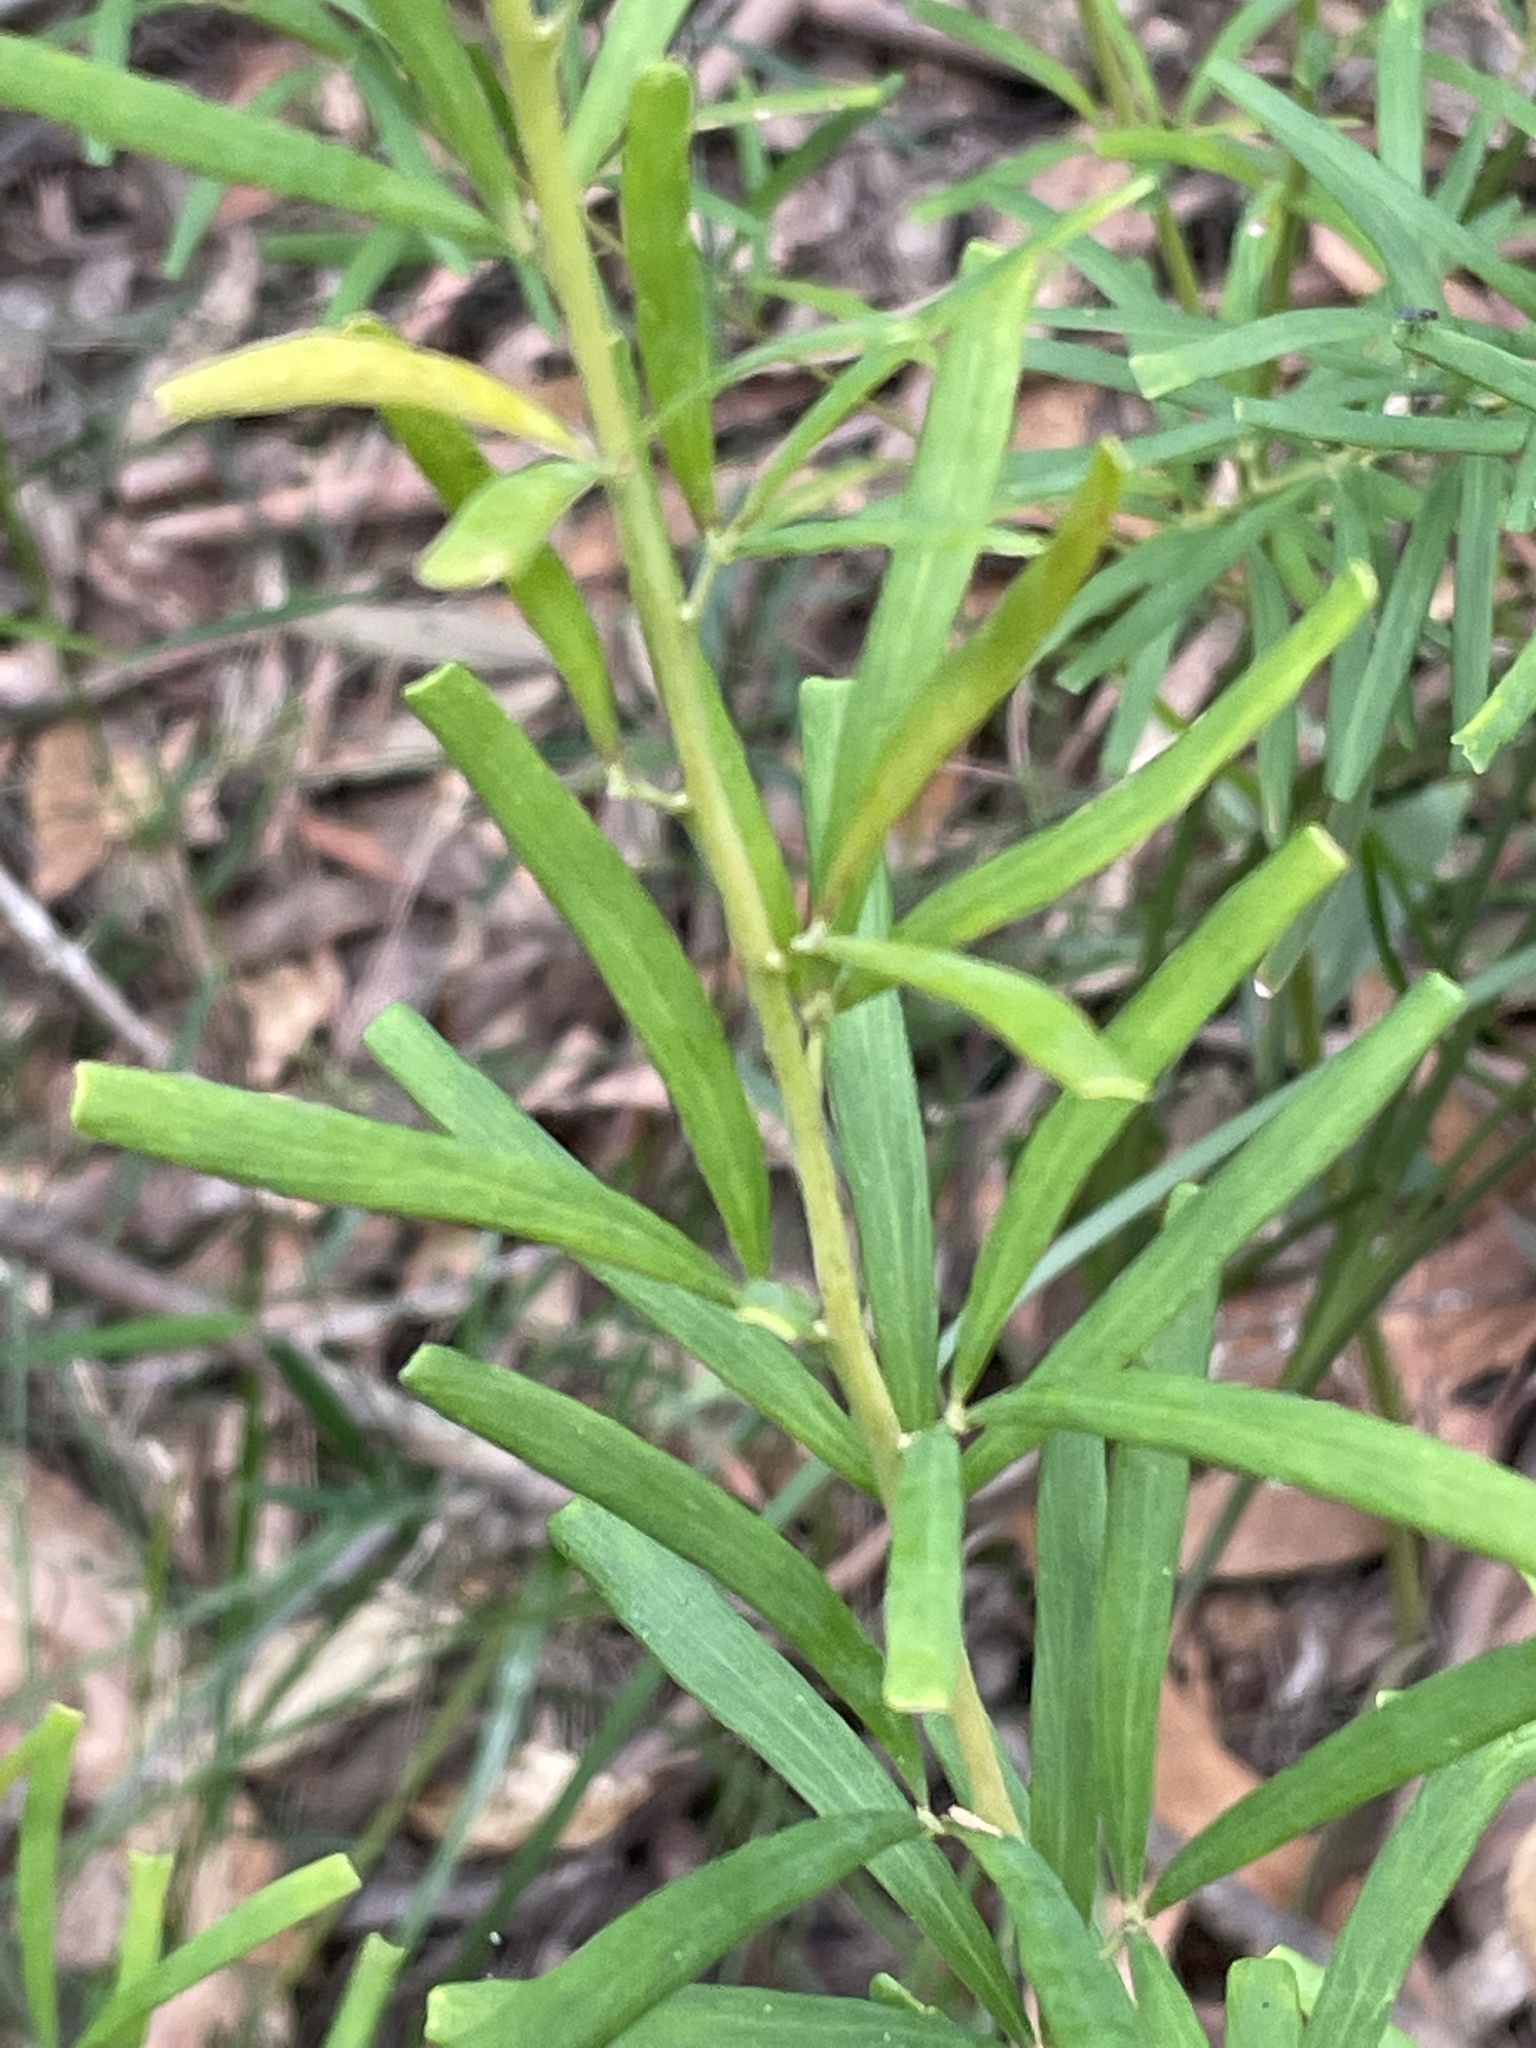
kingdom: Plantae
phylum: Tracheophyta
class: Magnoliopsida
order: Fabales
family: Fabaceae
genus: Gompholobium
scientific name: Gompholobium latifolium
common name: Broadleaf wedge-pea
